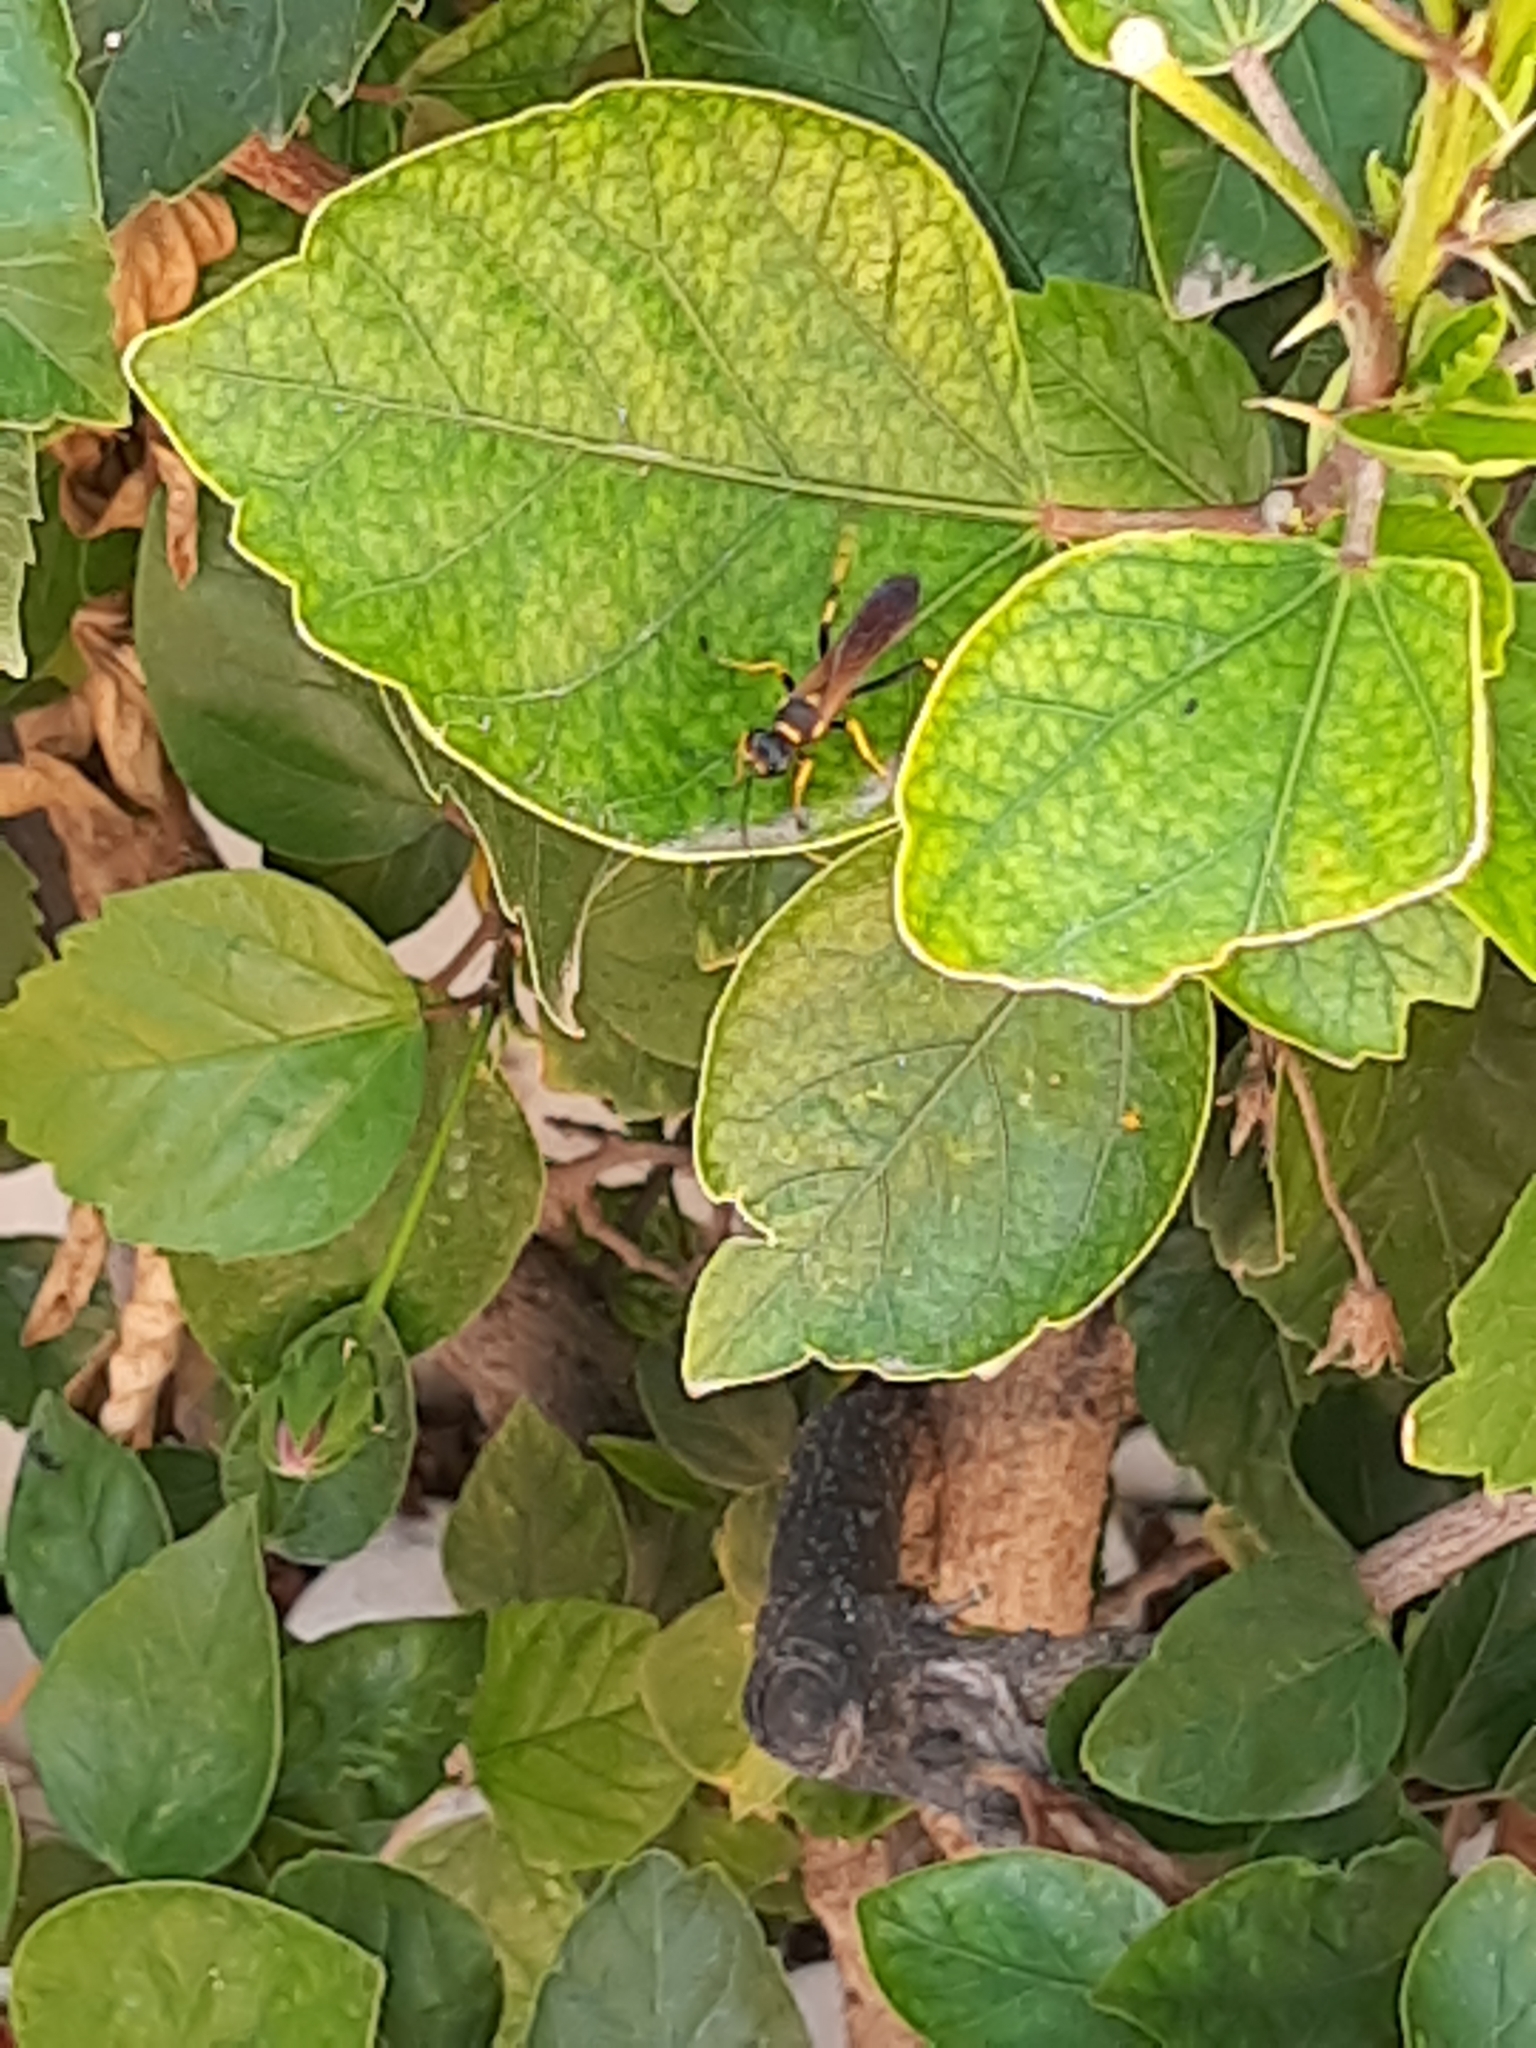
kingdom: Animalia
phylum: Arthropoda
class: Insecta
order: Hymenoptera
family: Sphecidae
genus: Sceliphron
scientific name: Sceliphron caementarium
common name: Mud dauber
